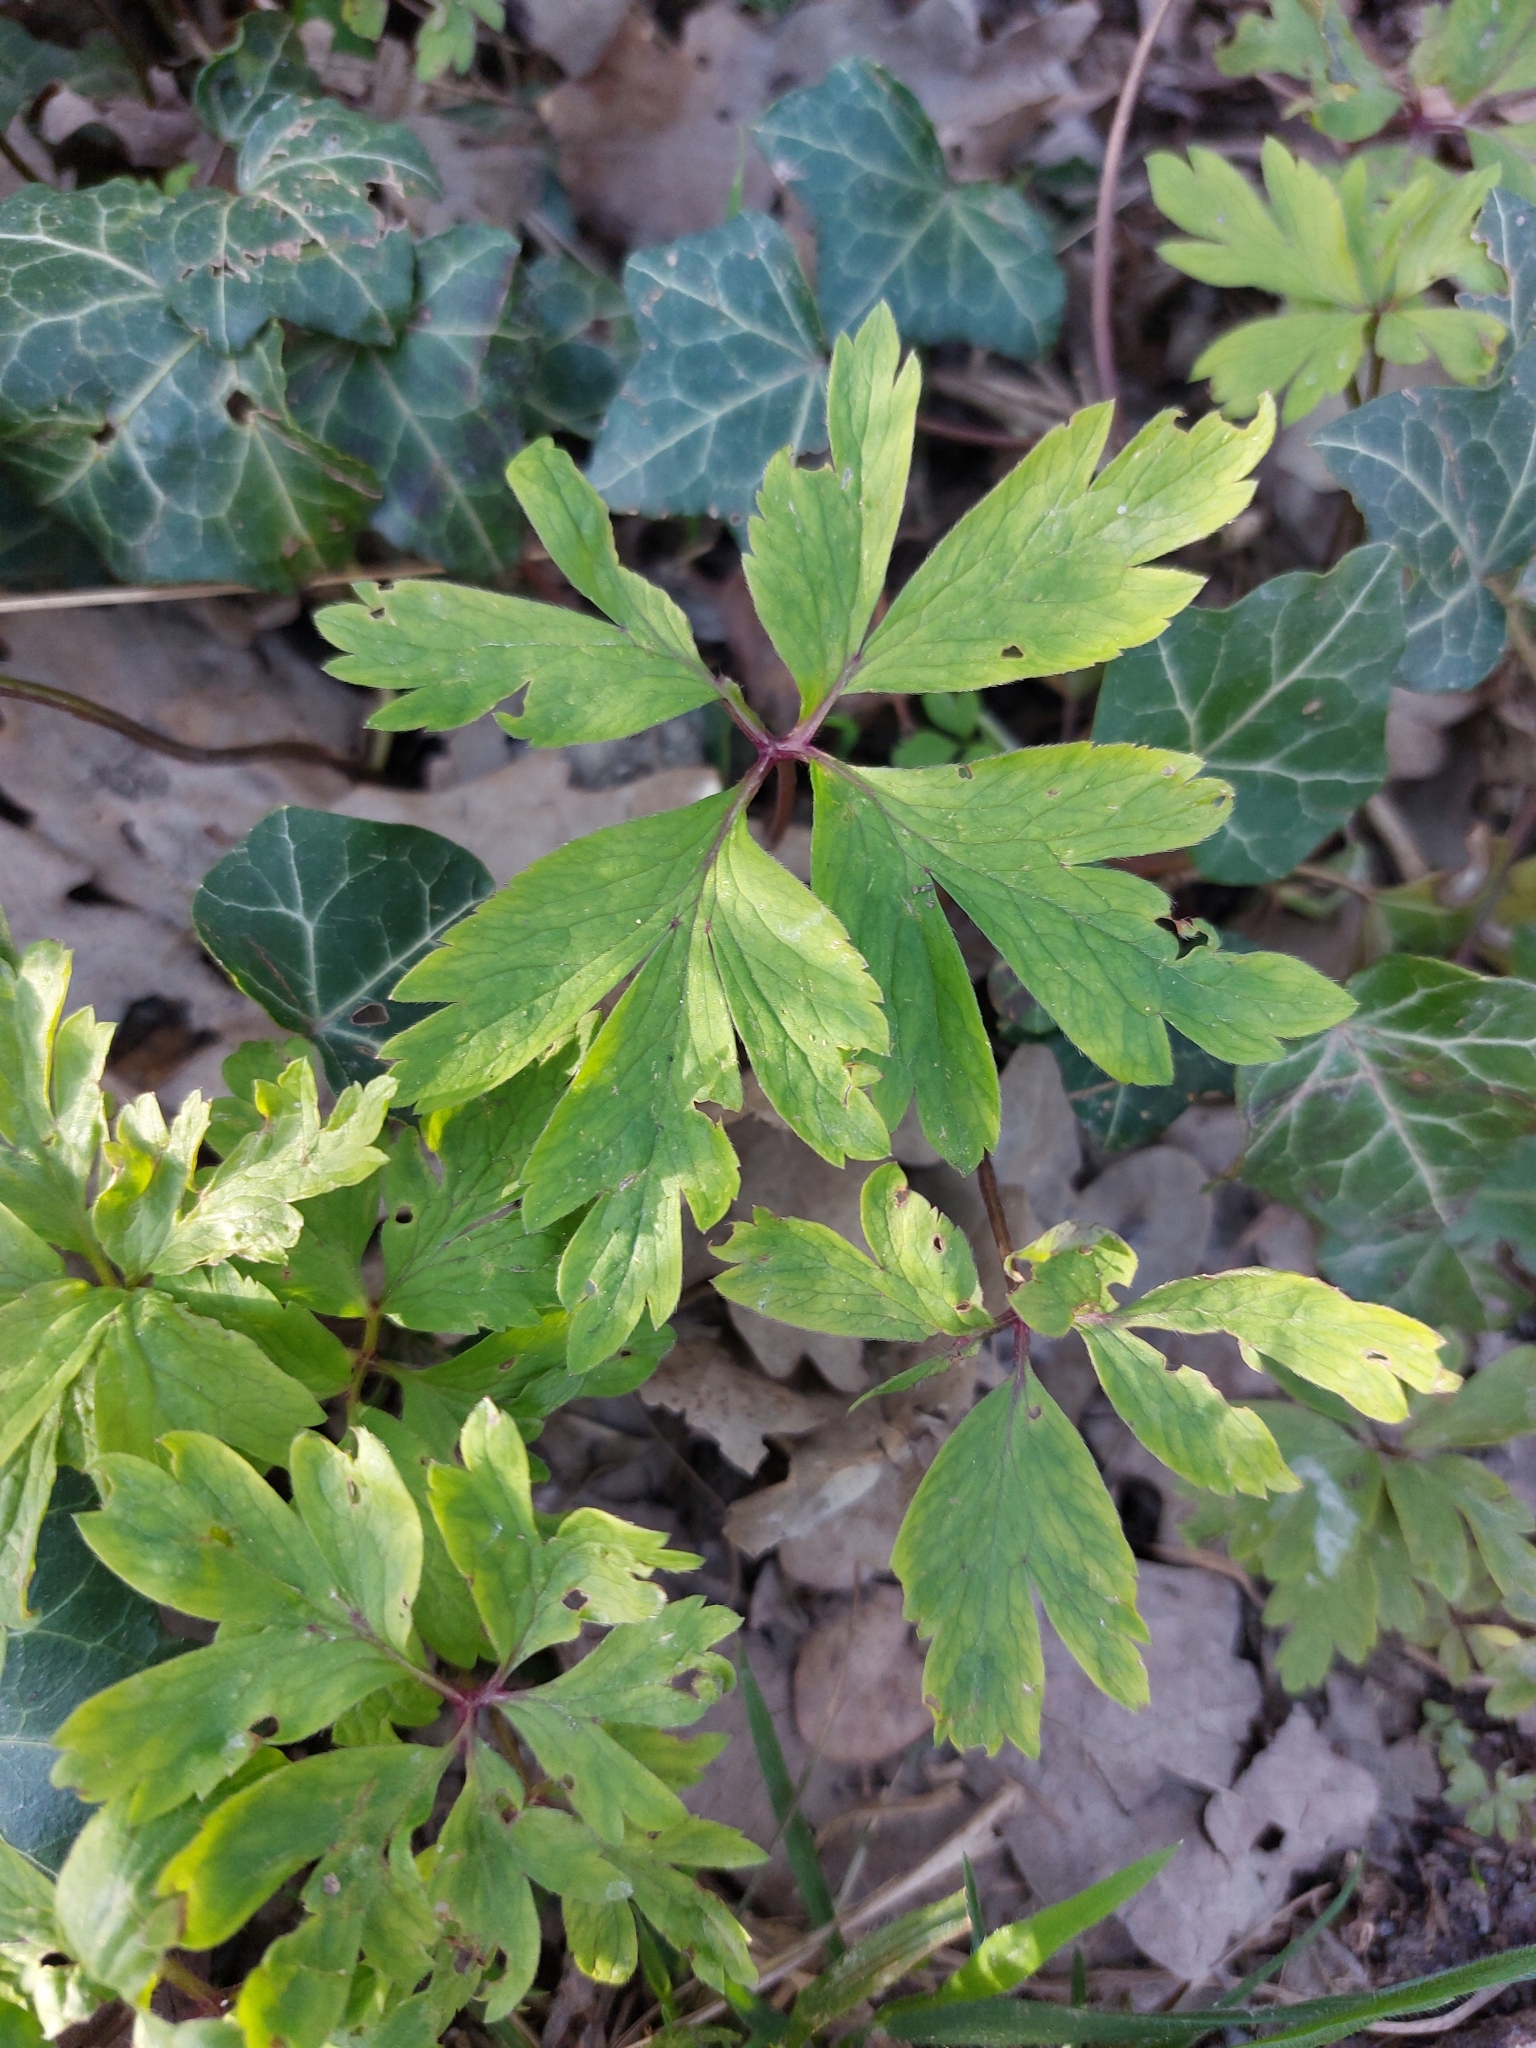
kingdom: Plantae
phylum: Tracheophyta
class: Magnoliopsida
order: Ranunculales
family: Ranunculaceae
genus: Anemone
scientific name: Anemone nemorosa
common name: Wood anemone
